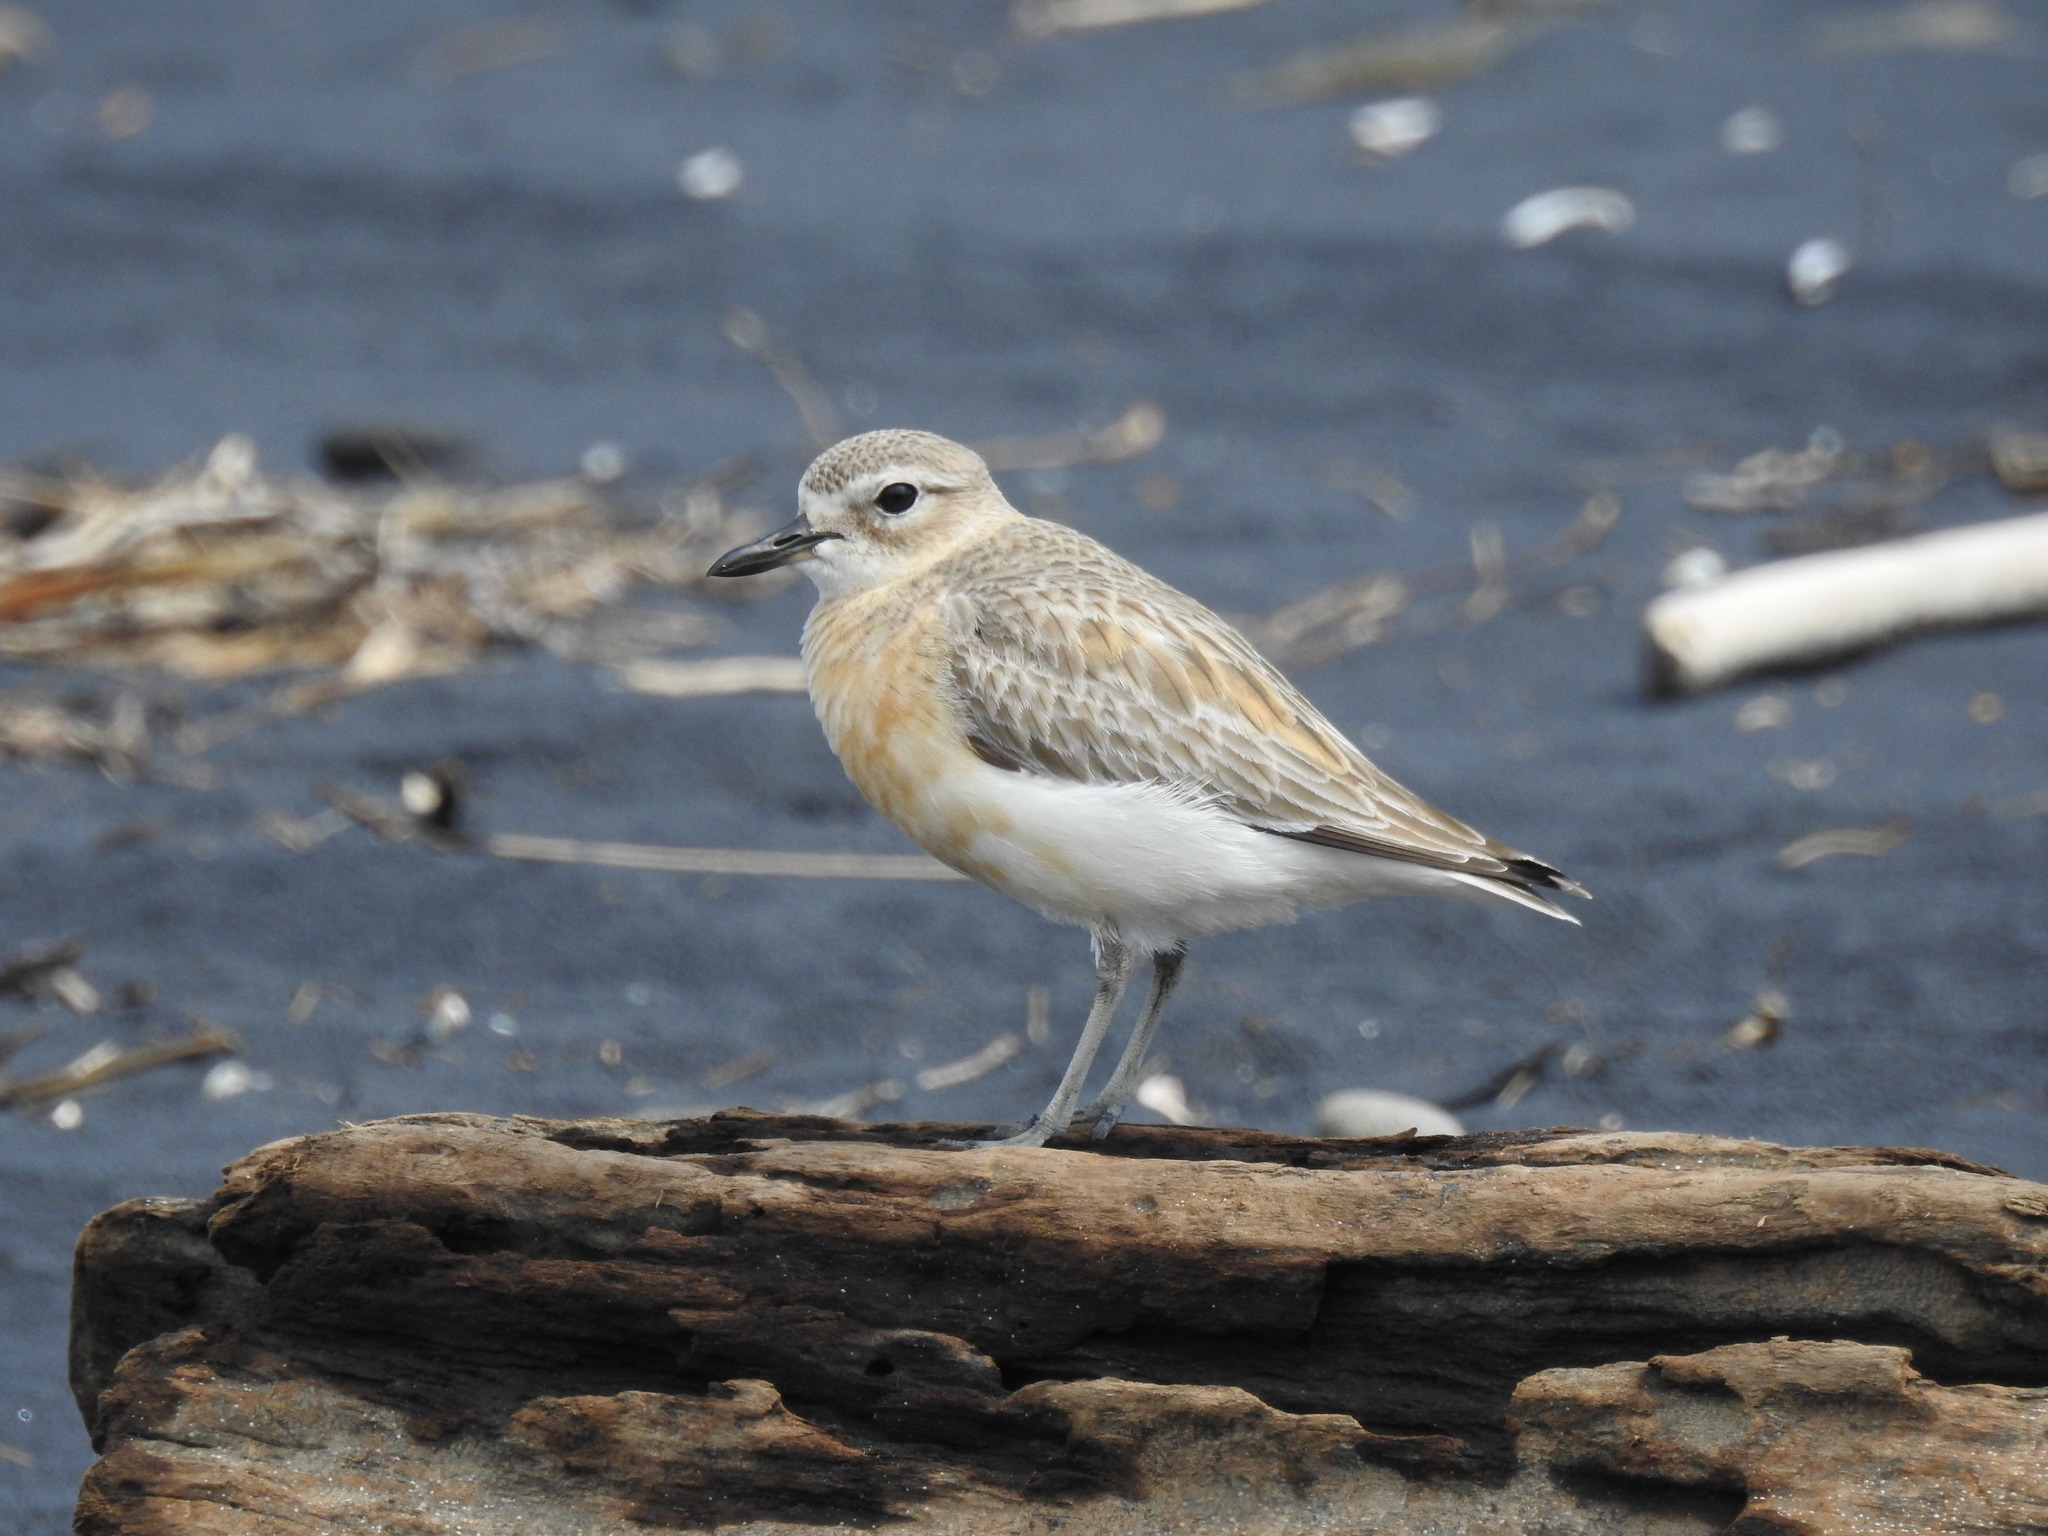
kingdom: Animalia
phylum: Chordata
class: Aves
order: Charadriiformes
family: Charadriidae
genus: Anarhynchus
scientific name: Anarhynchus
